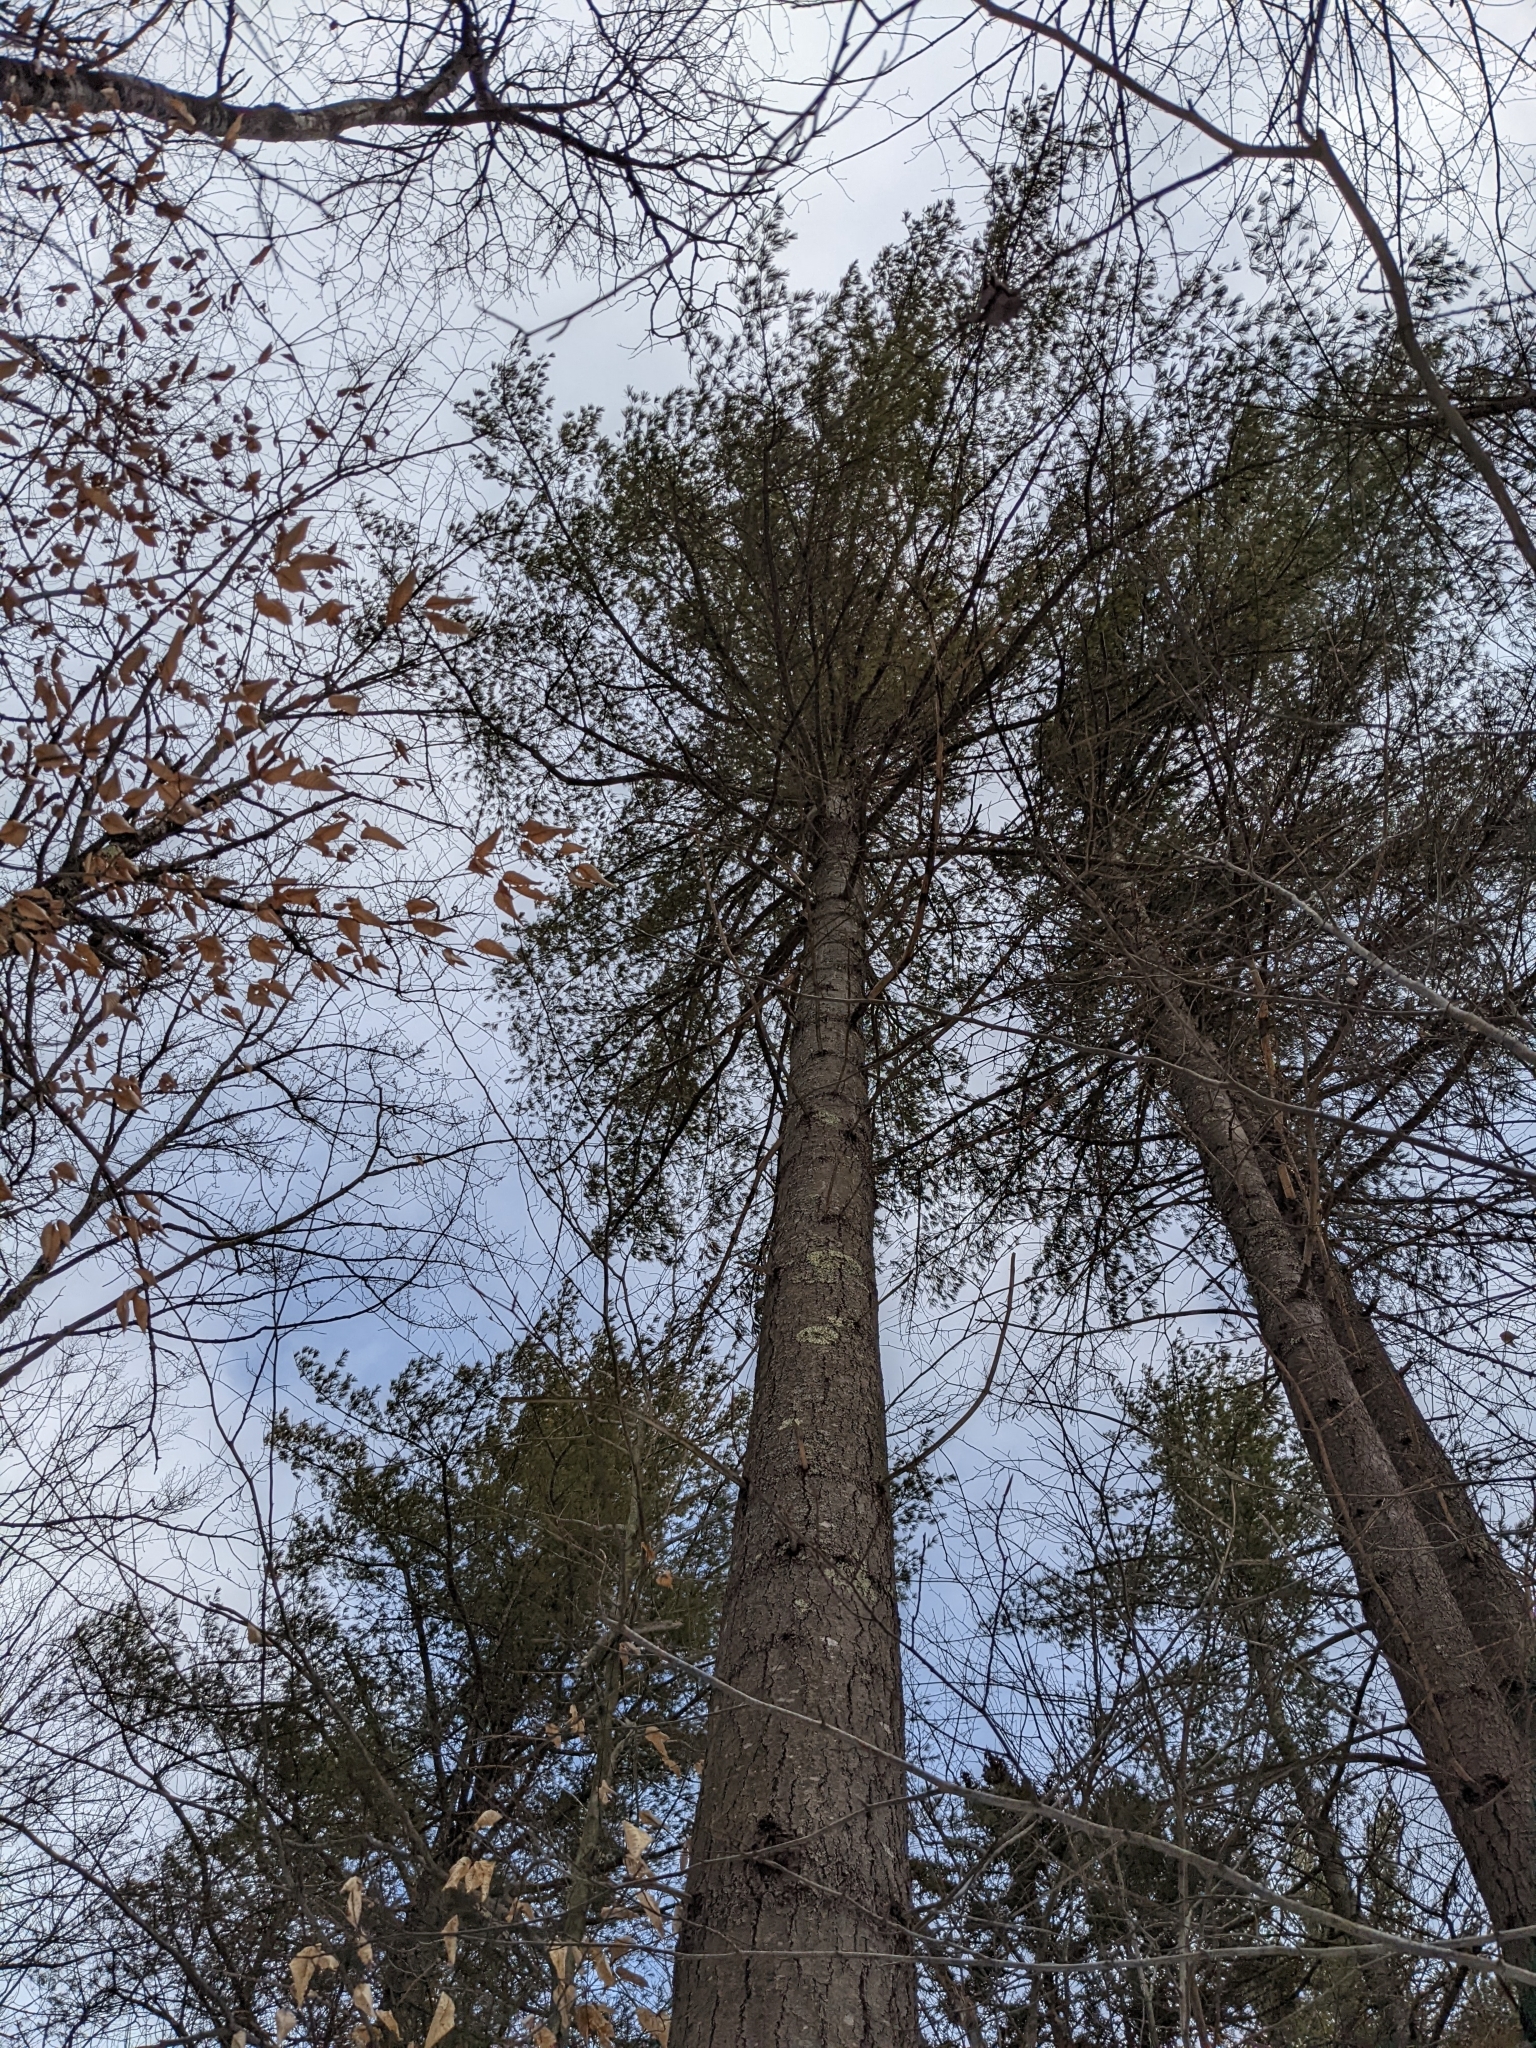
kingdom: Plantae
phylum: Tracheophyta
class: Pinopsida
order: Pinales
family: Pinaceae
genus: Pinus
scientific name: Pinus strobus
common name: Weymouth pine
